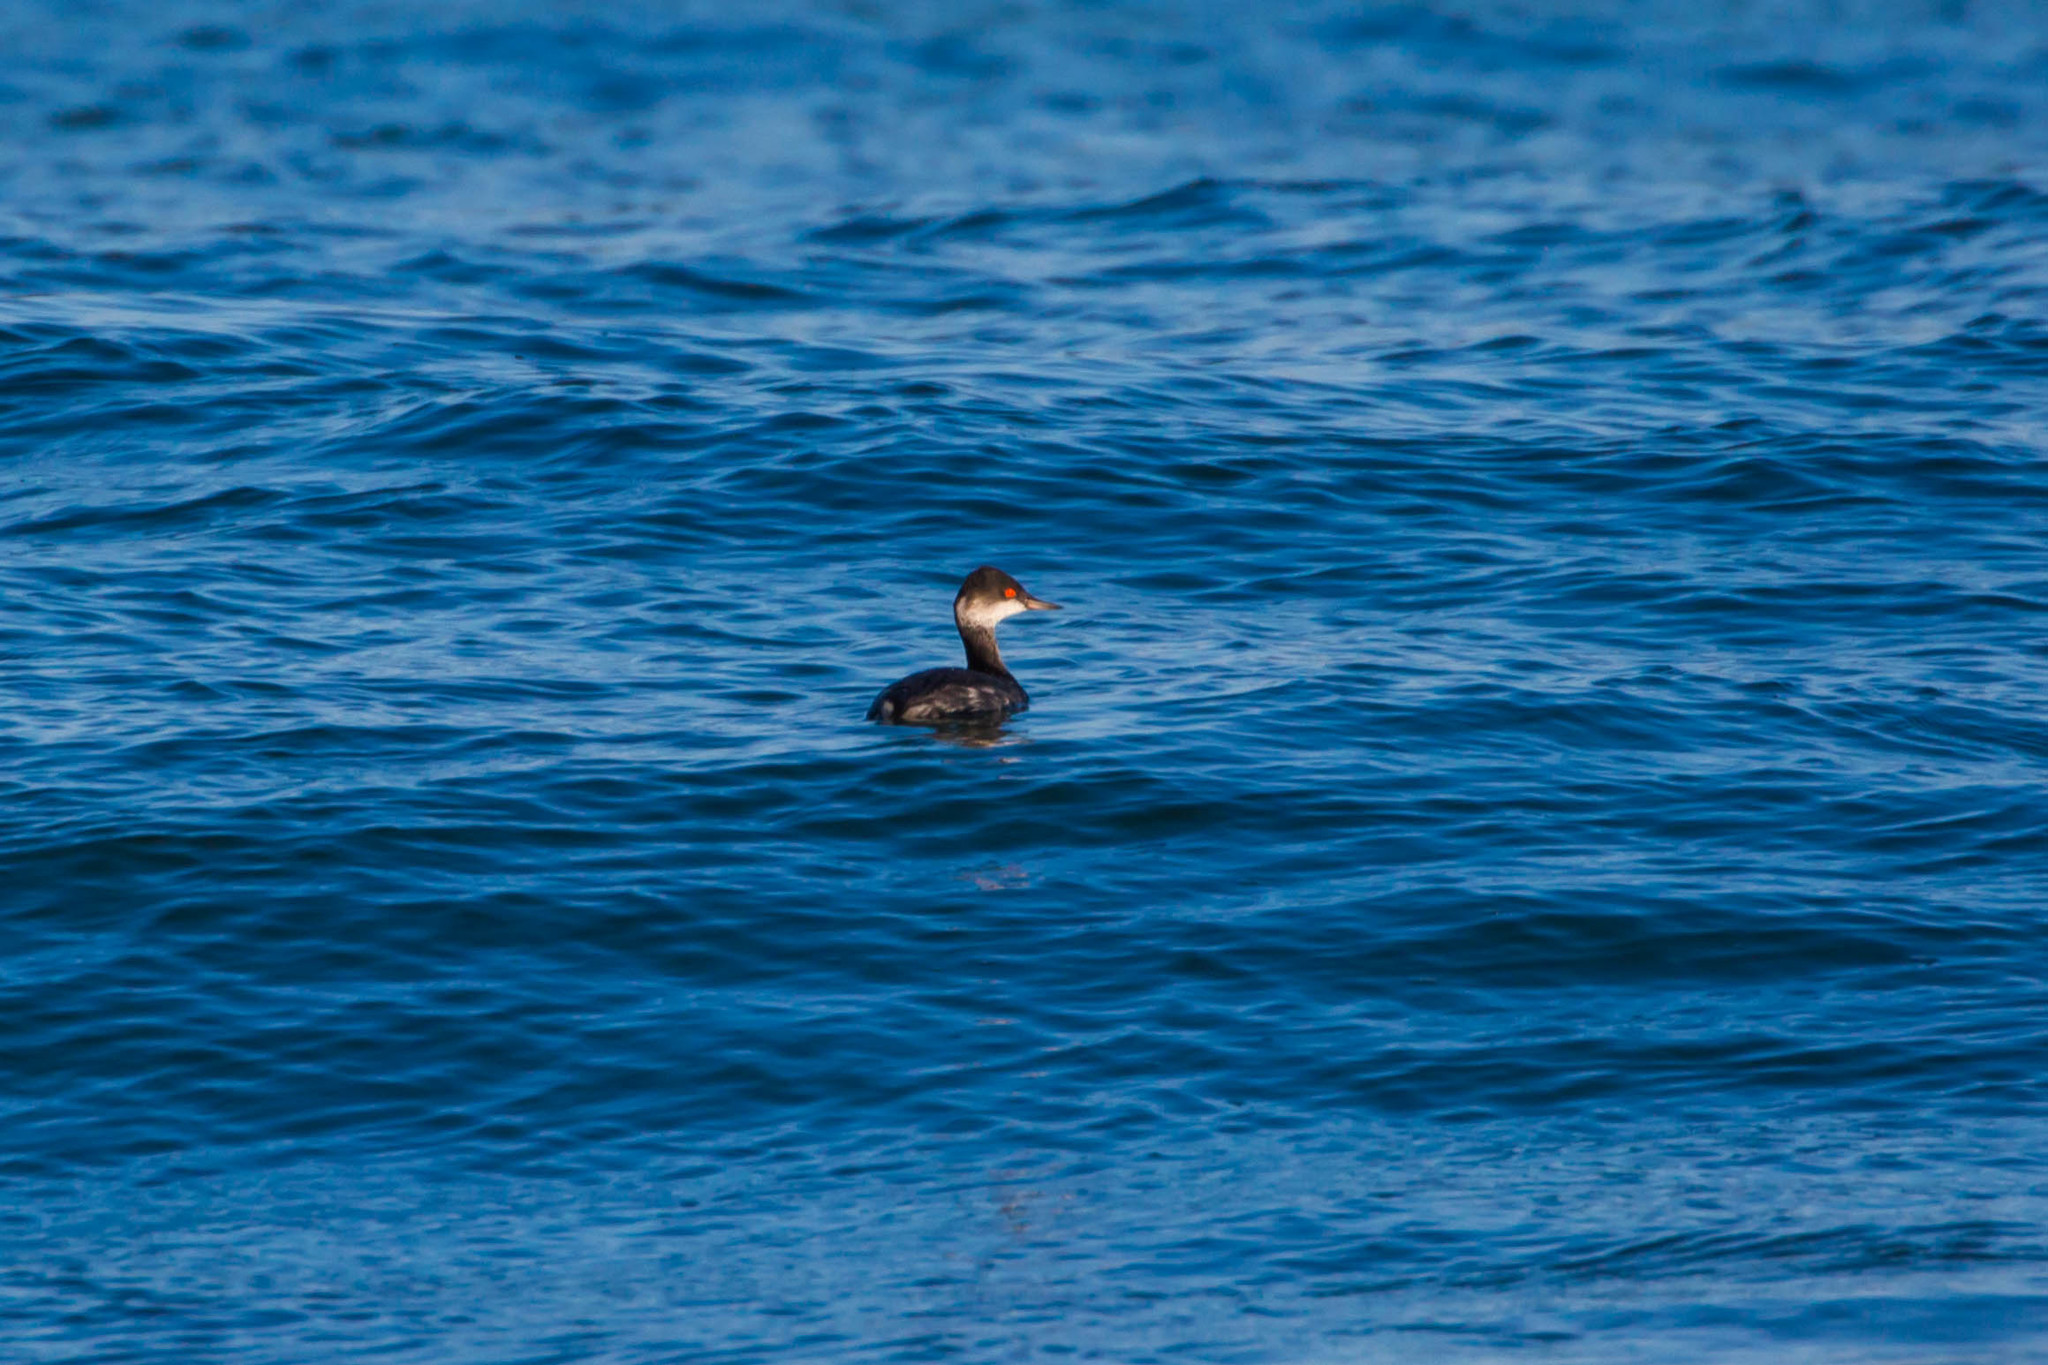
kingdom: Animalia
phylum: Chordata
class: Aves
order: Podicipediformes
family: Podicipedidae
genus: Podiceps
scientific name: Podiceps nigricollis
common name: Black-necked grebe
